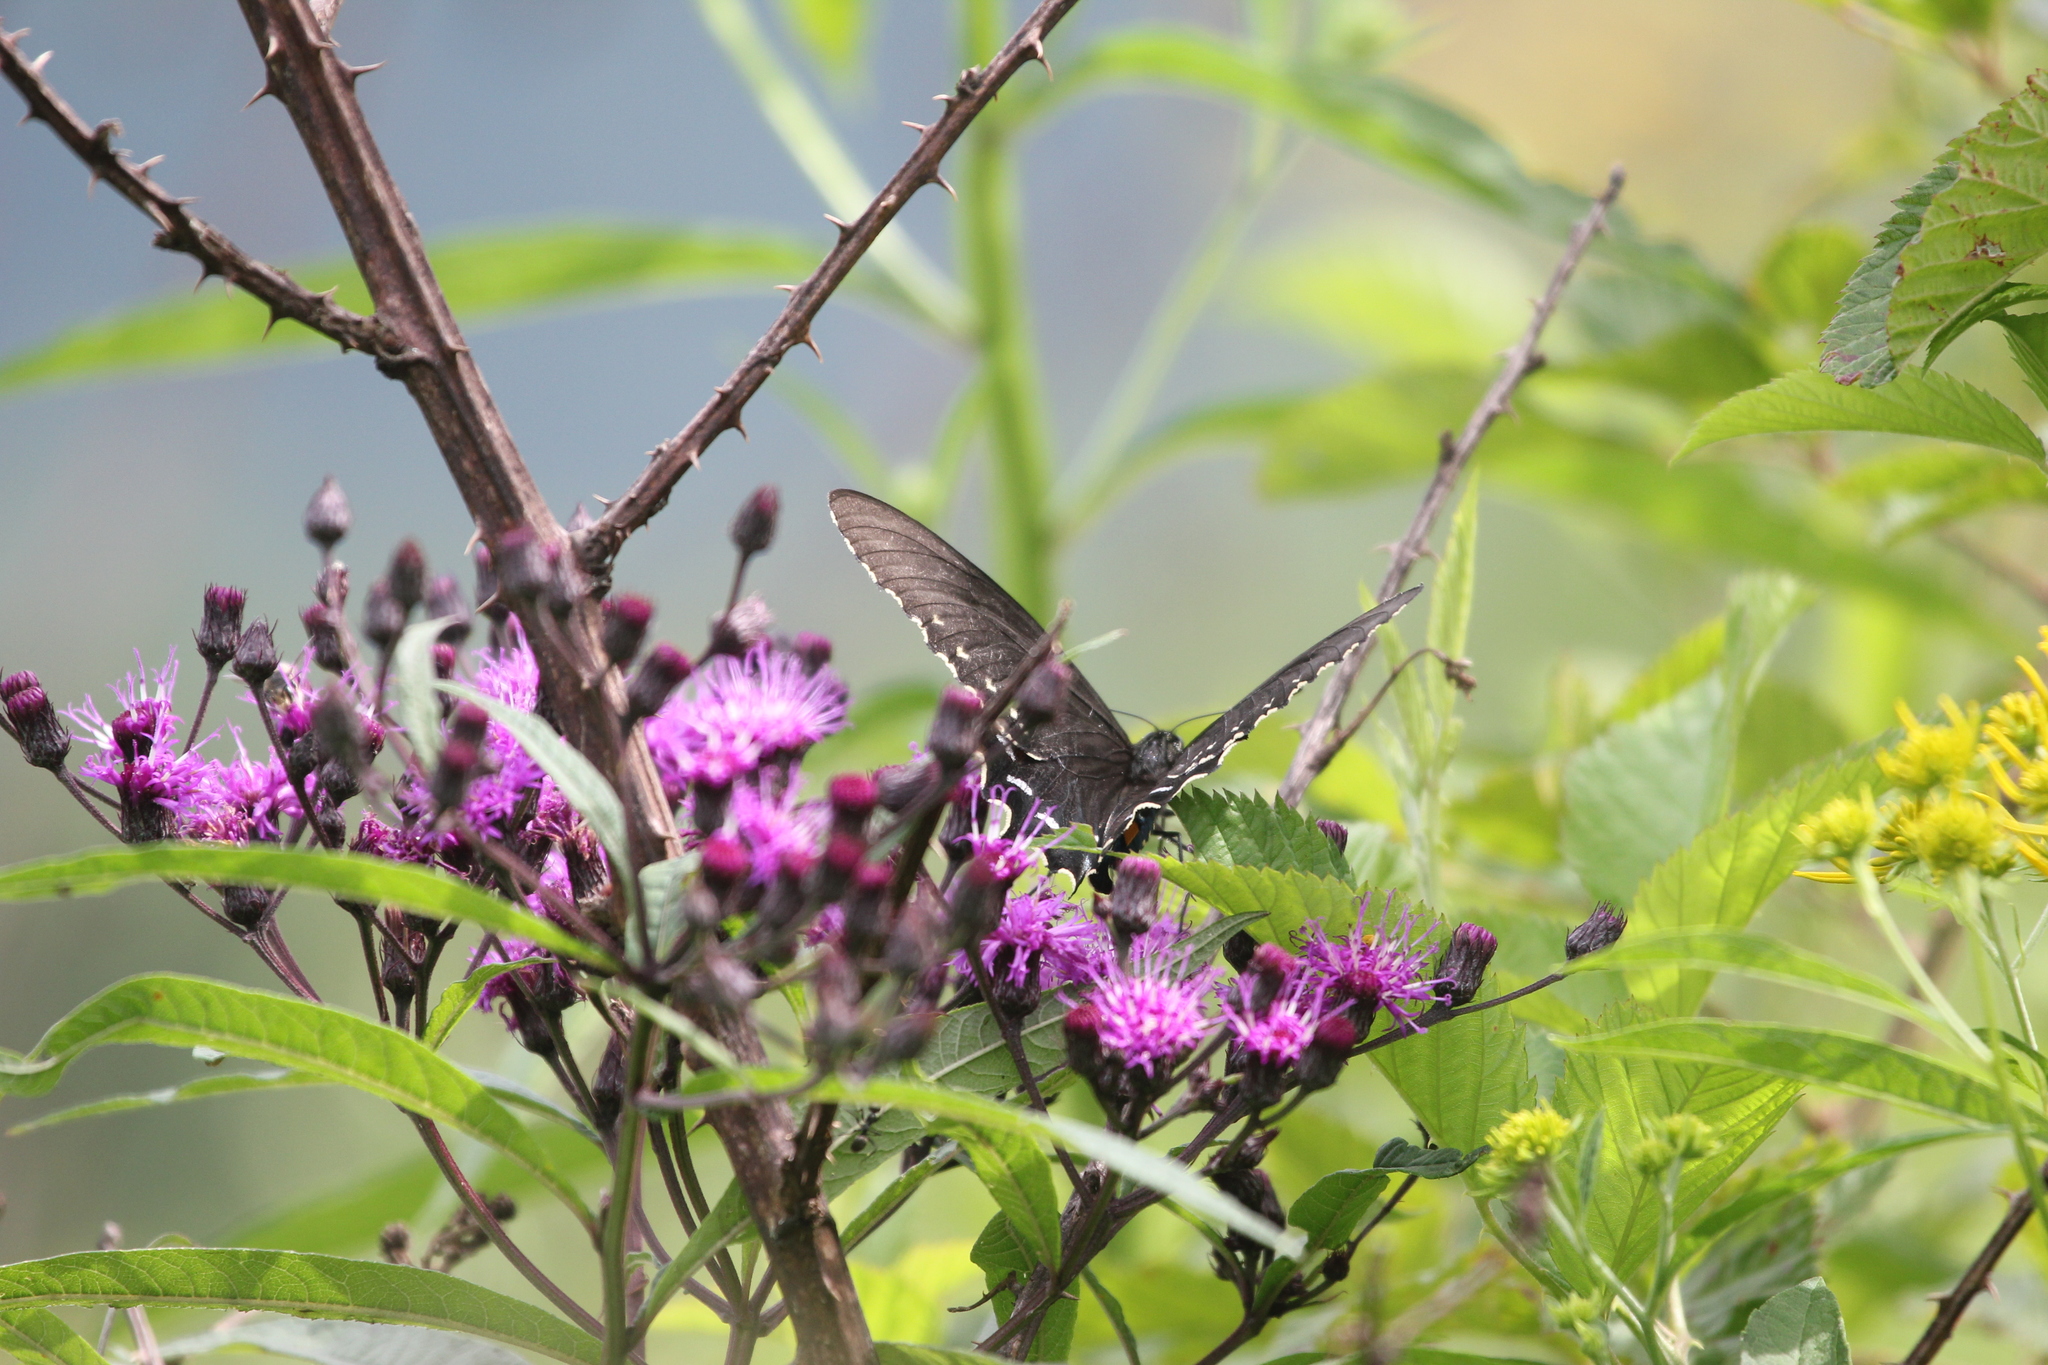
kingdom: Animalia
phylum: Arthropoda
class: Insecta
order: Lepidoptera
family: Papilionidae
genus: Battus
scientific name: Battus philenor
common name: Pipevine swallowtail
